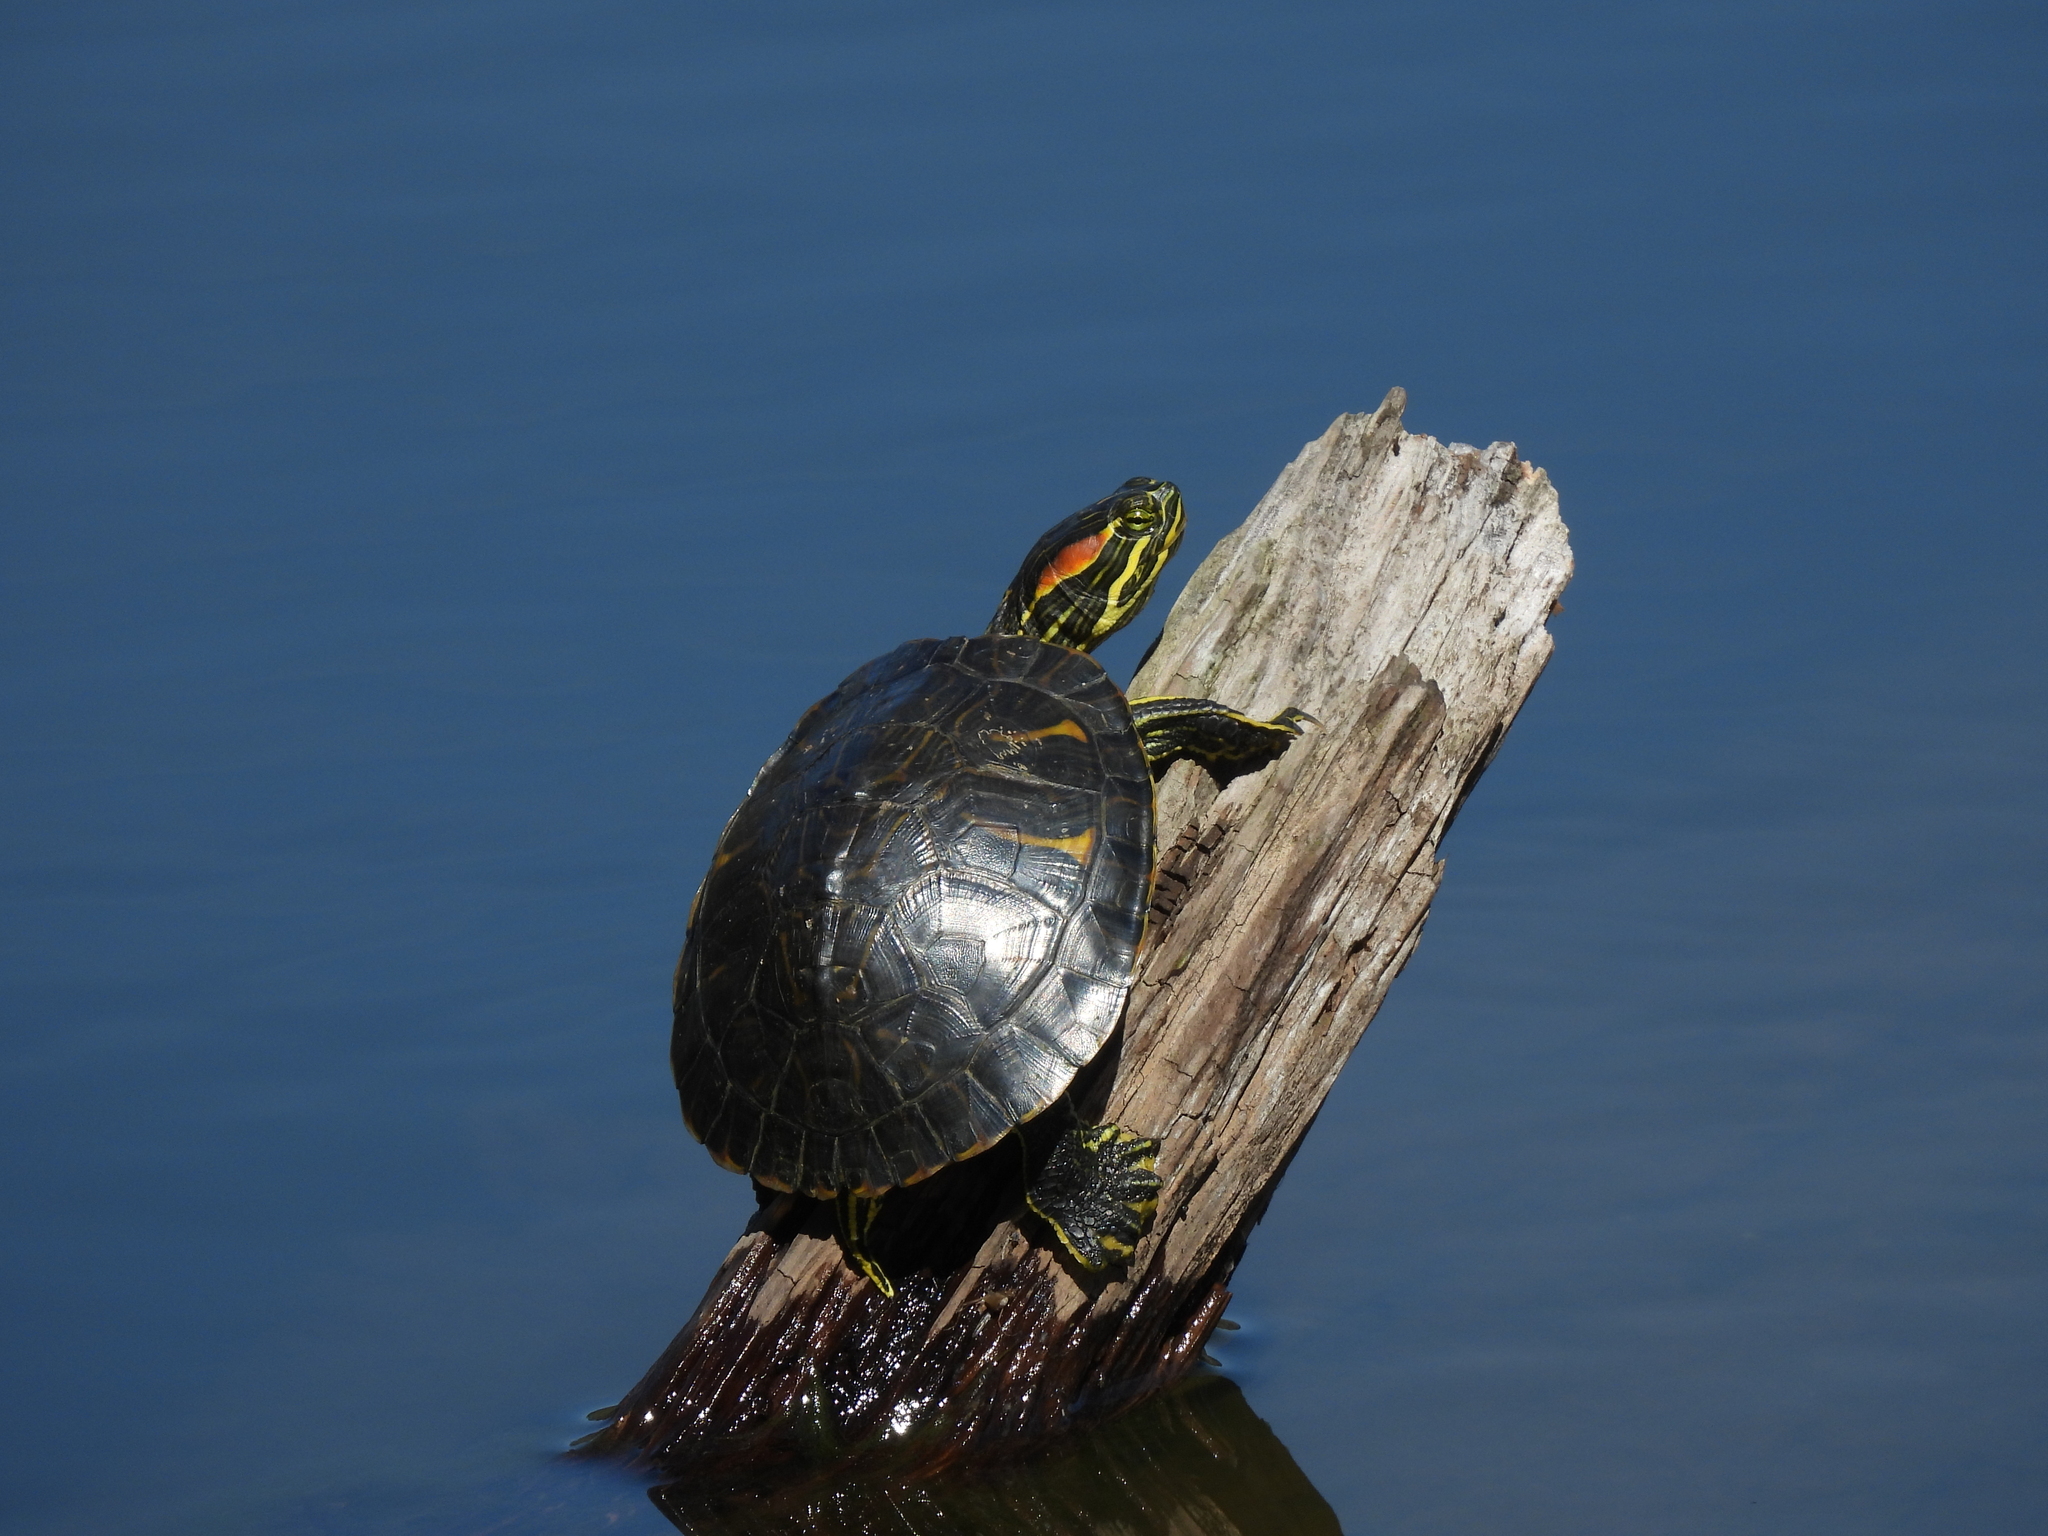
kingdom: Animalia
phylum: Chordata
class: Testudines
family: Emydidae
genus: Trachemys
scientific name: Trachemys scripta
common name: Slider
